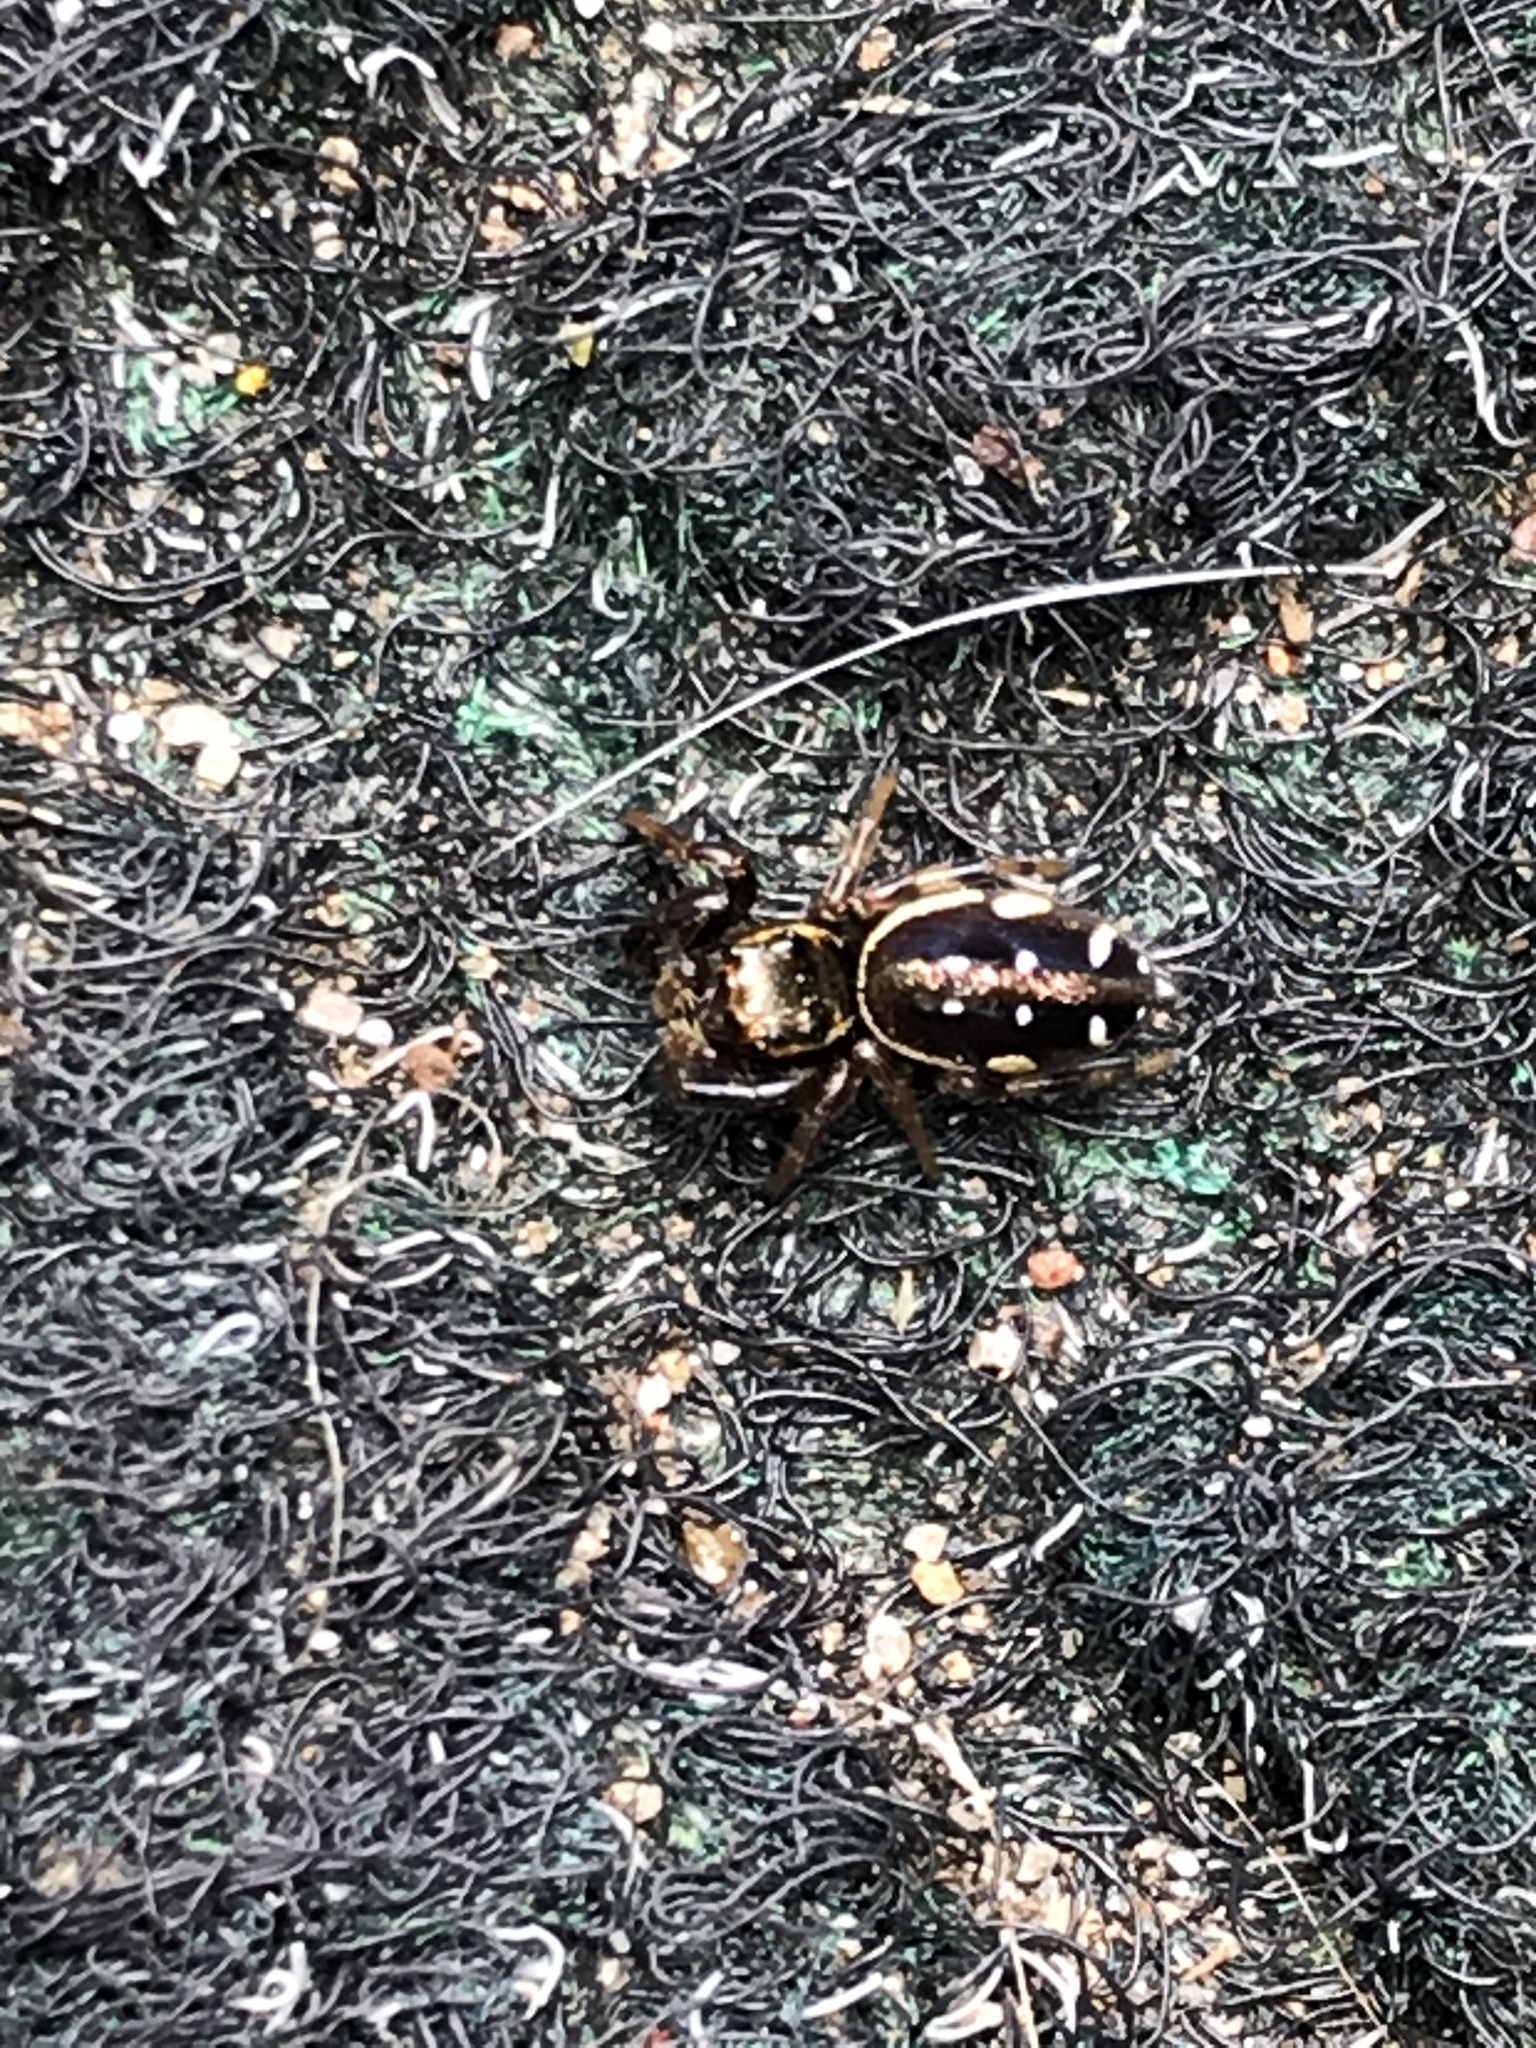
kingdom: Animalia
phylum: Arthropoda
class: Arachnida
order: Araneae
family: Salticidae
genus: Paraphidippus
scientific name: Paraphidippus aurantius
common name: Jumping spiders
